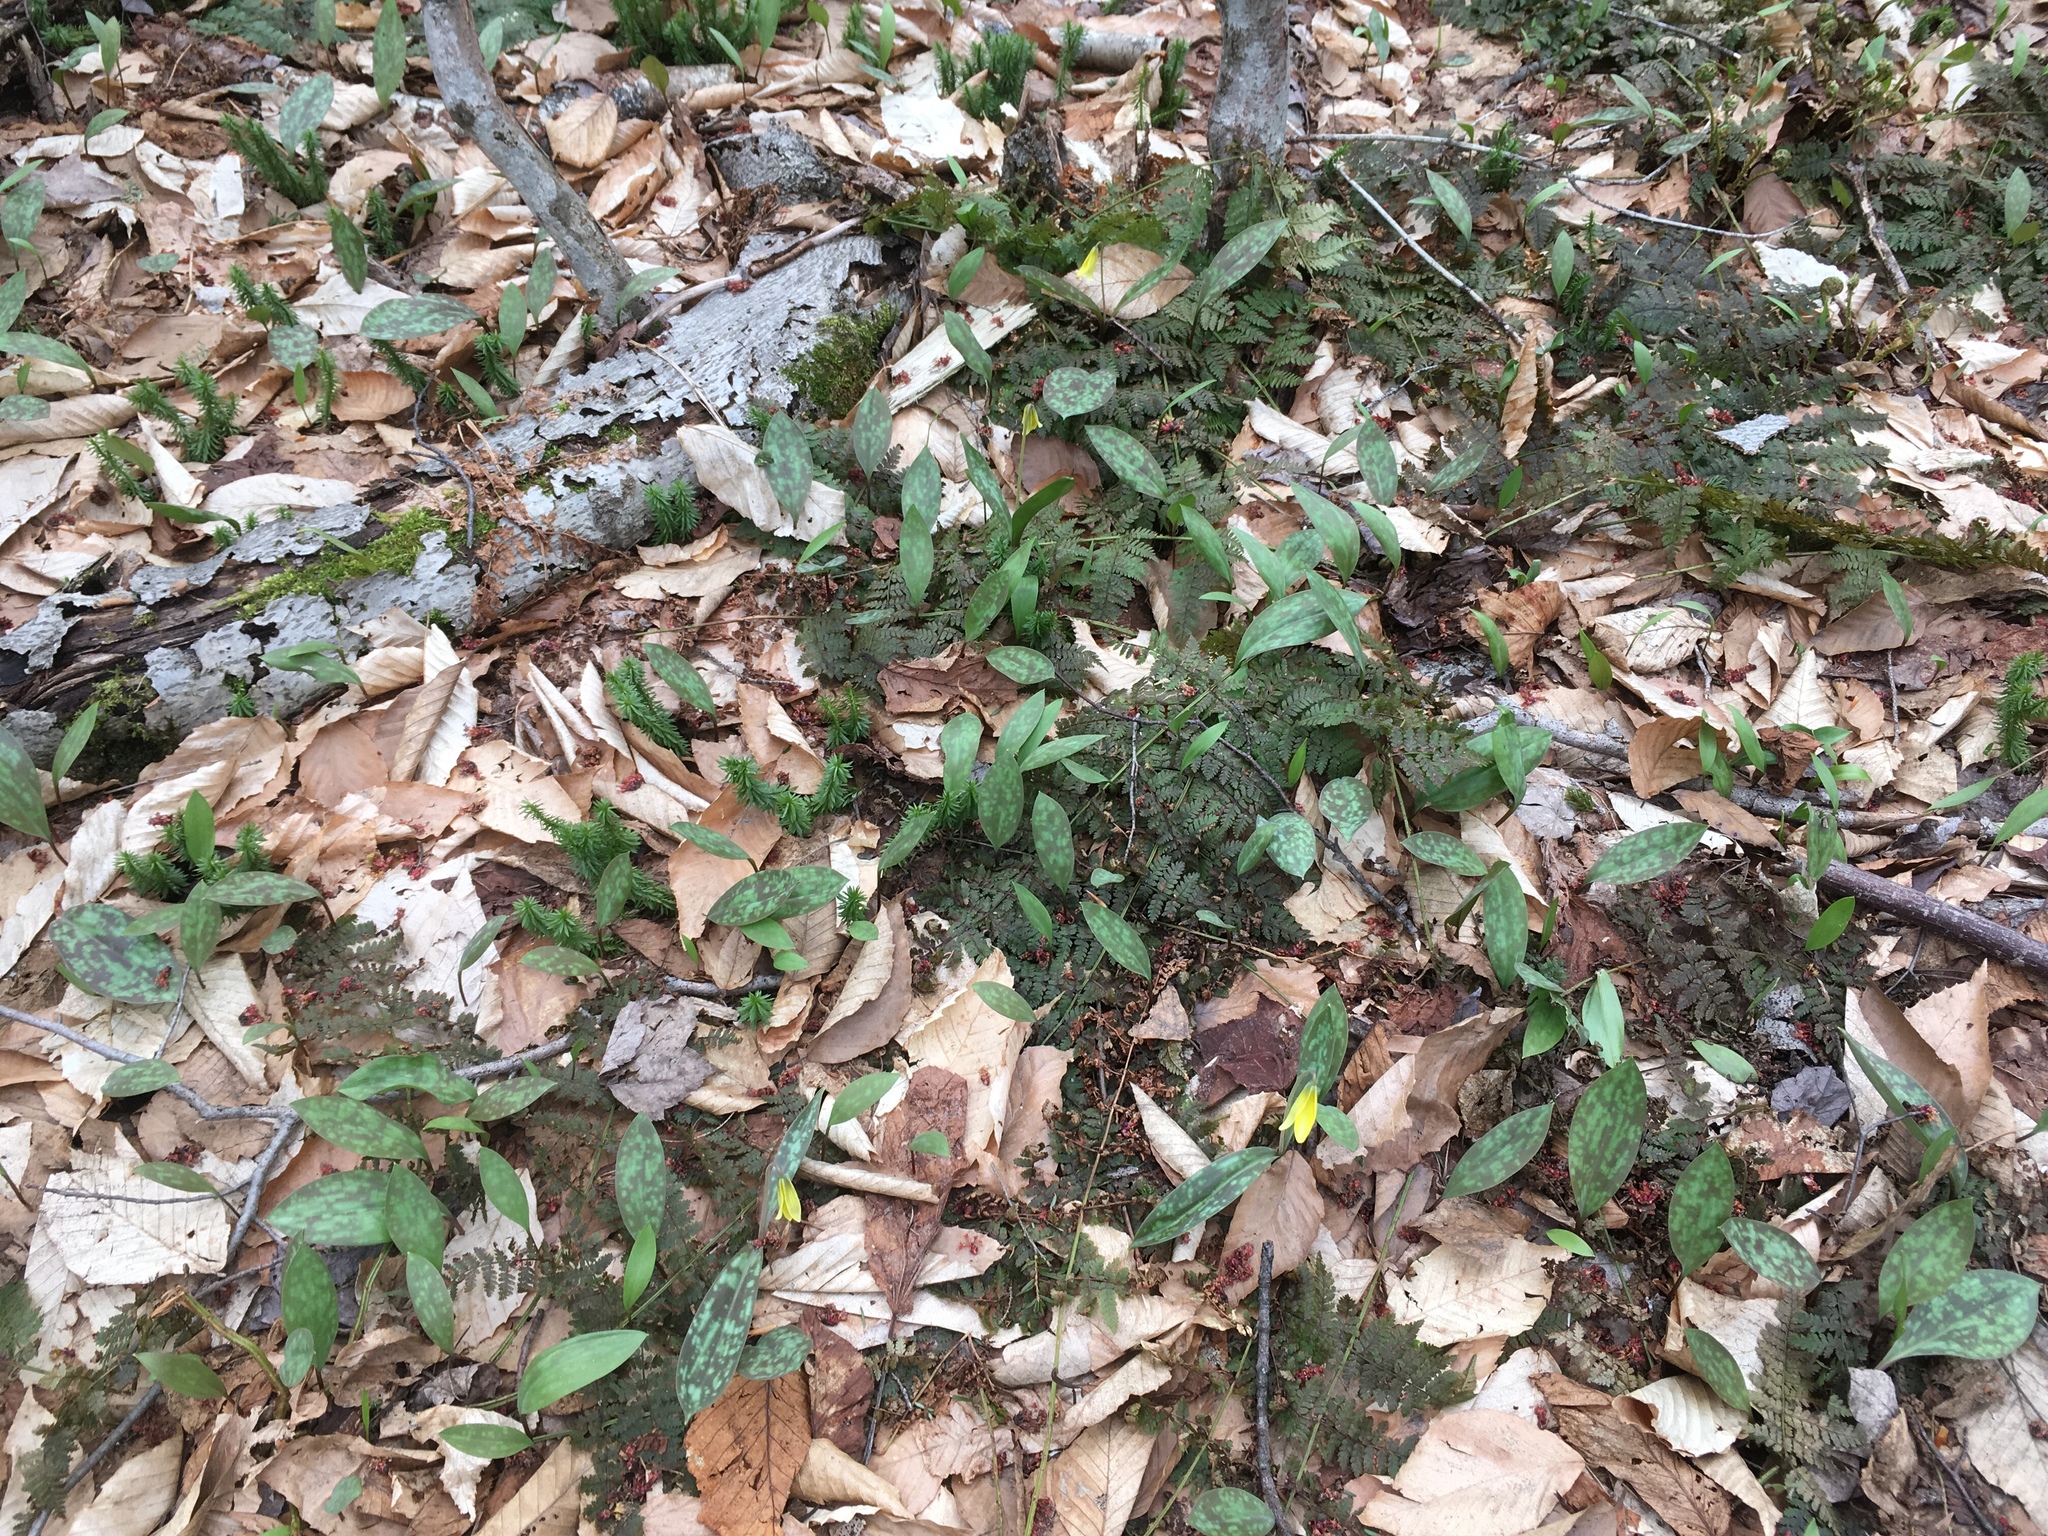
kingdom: Plantae
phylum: Tracheophyta
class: Liliopsida
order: Liliales
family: Liliaceae
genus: Erythronium
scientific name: Erythronium americanum
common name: Yellow adder's-tongue
